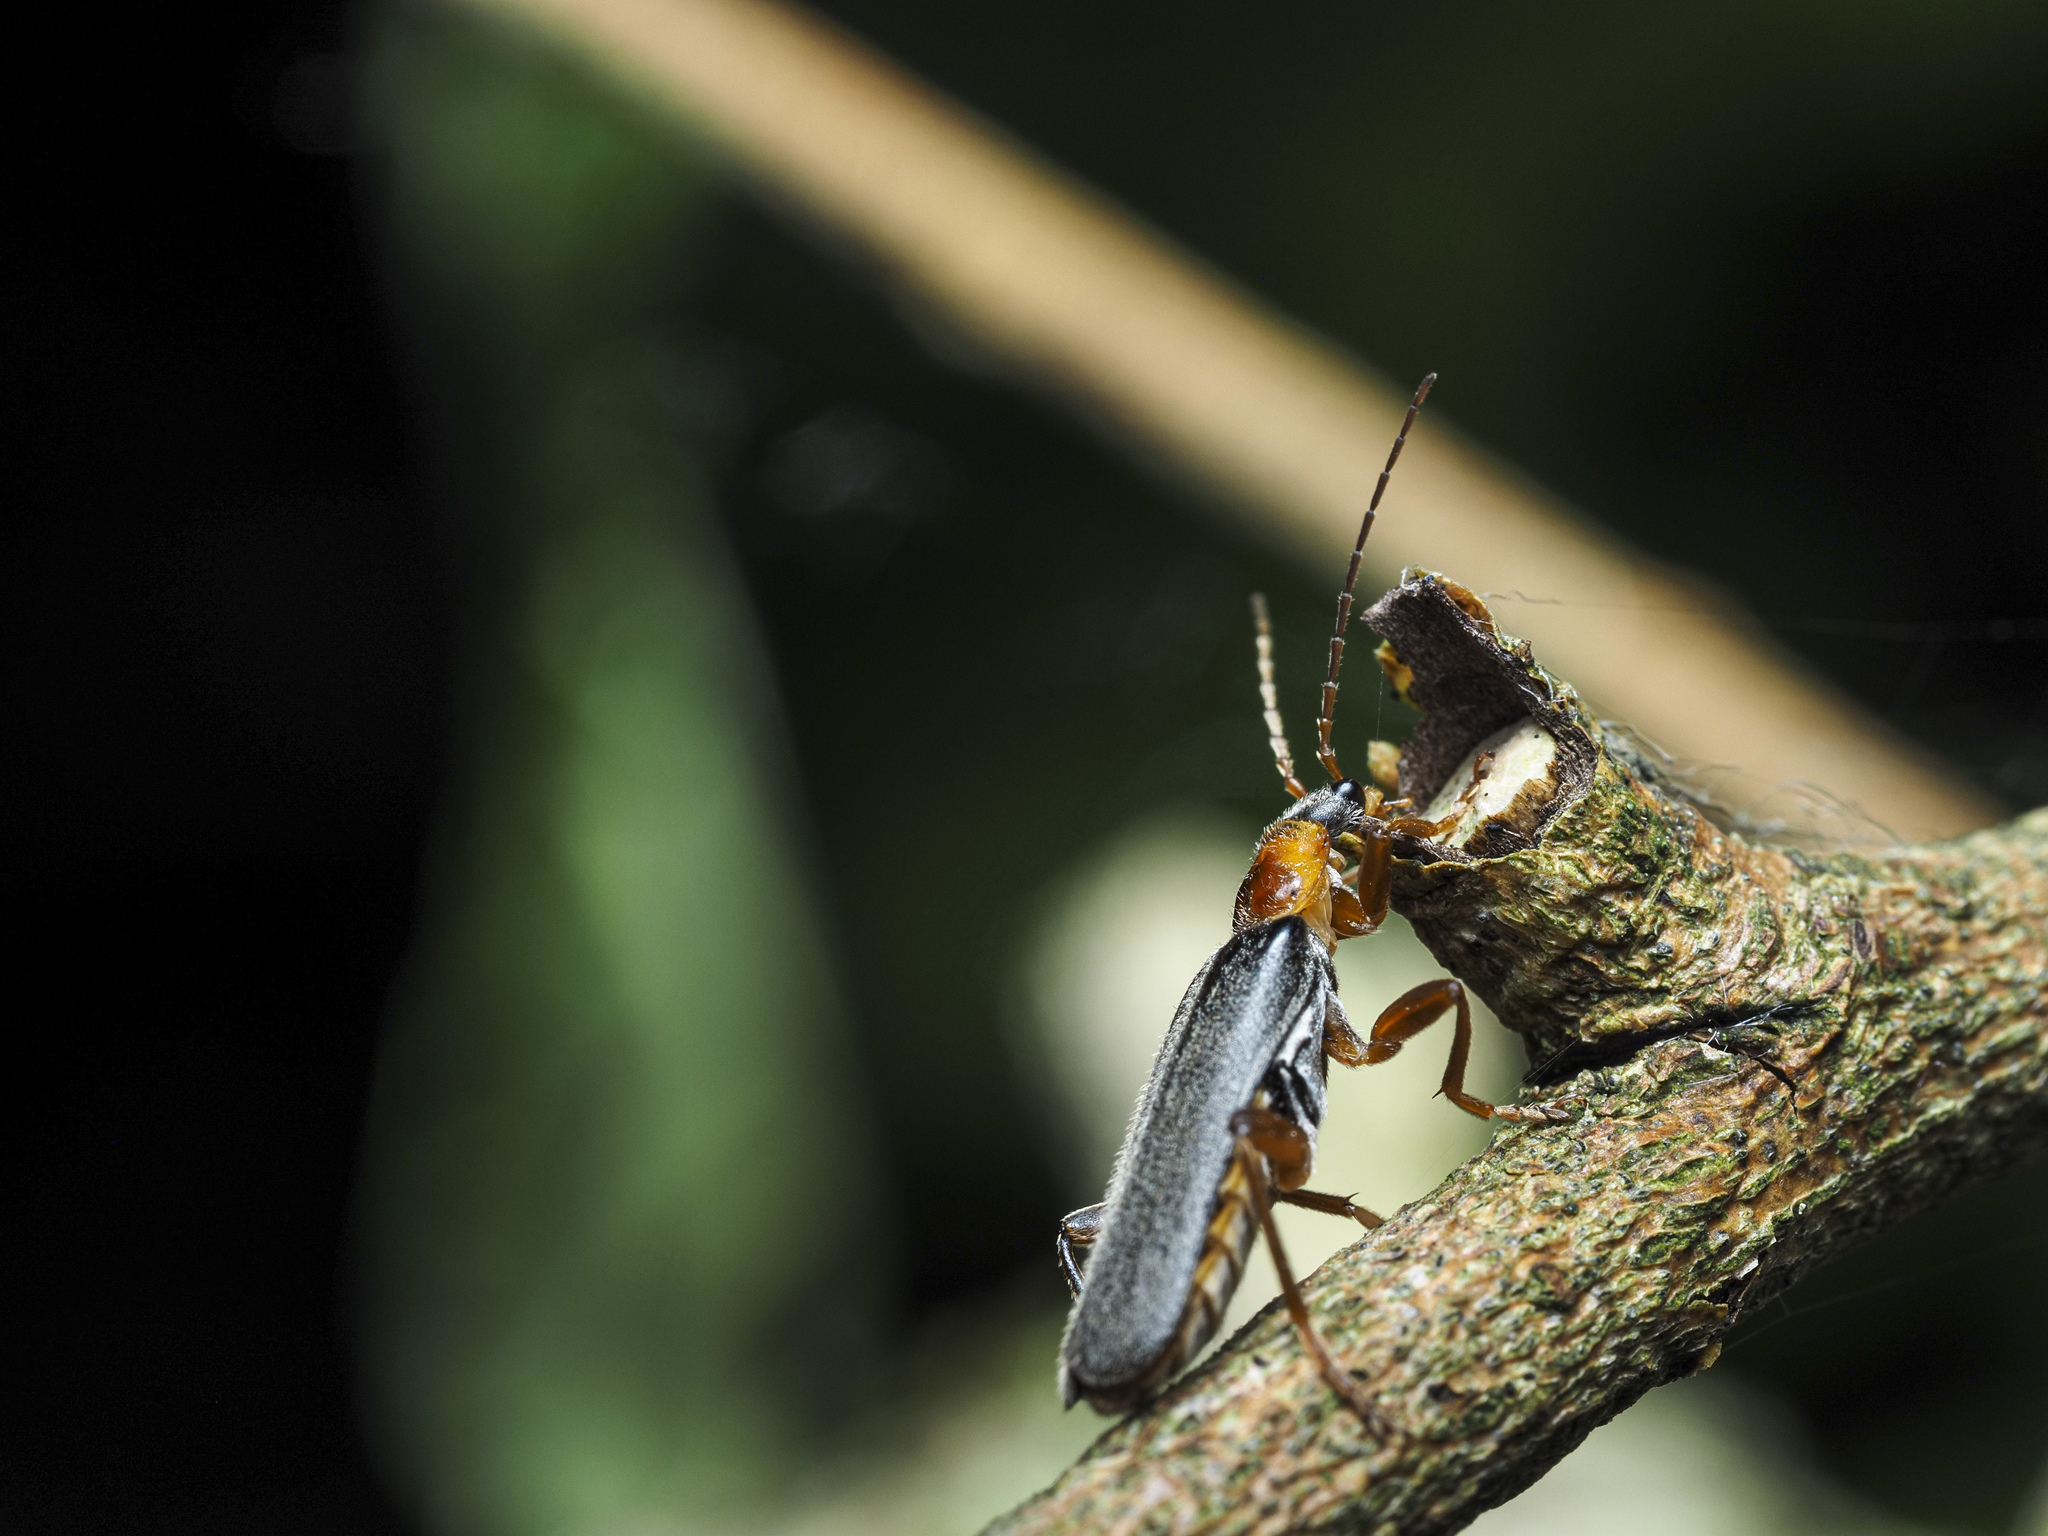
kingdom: Animalia
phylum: Arthropoda
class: Insecta
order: Coleoptera
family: Cantharidae
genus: Cantharis
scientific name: Cantharis nigricans
